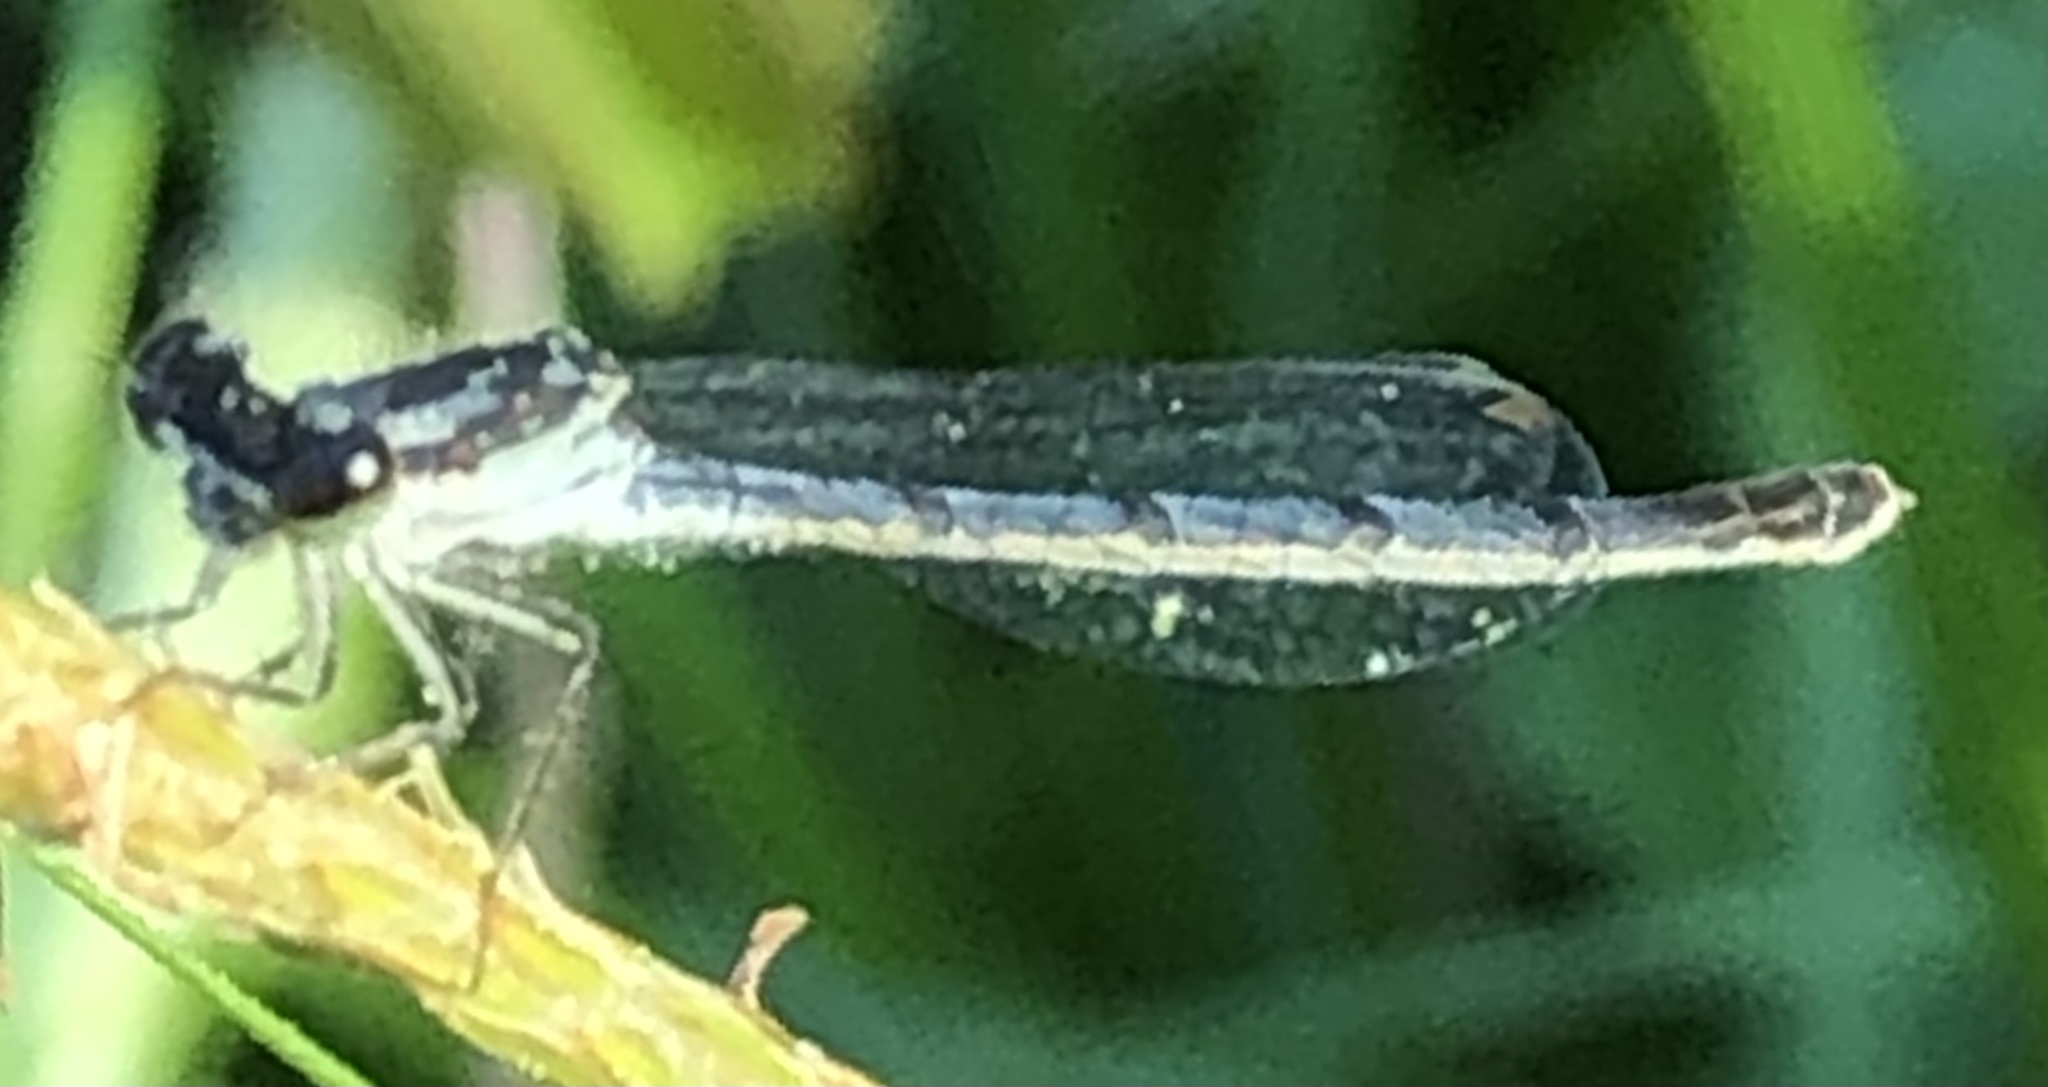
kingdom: Animalia
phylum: Arthropoda
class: Insecta
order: Odonata
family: Coenagrionidae
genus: Ischnura
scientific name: Ischnura posita
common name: Fragile forktail
